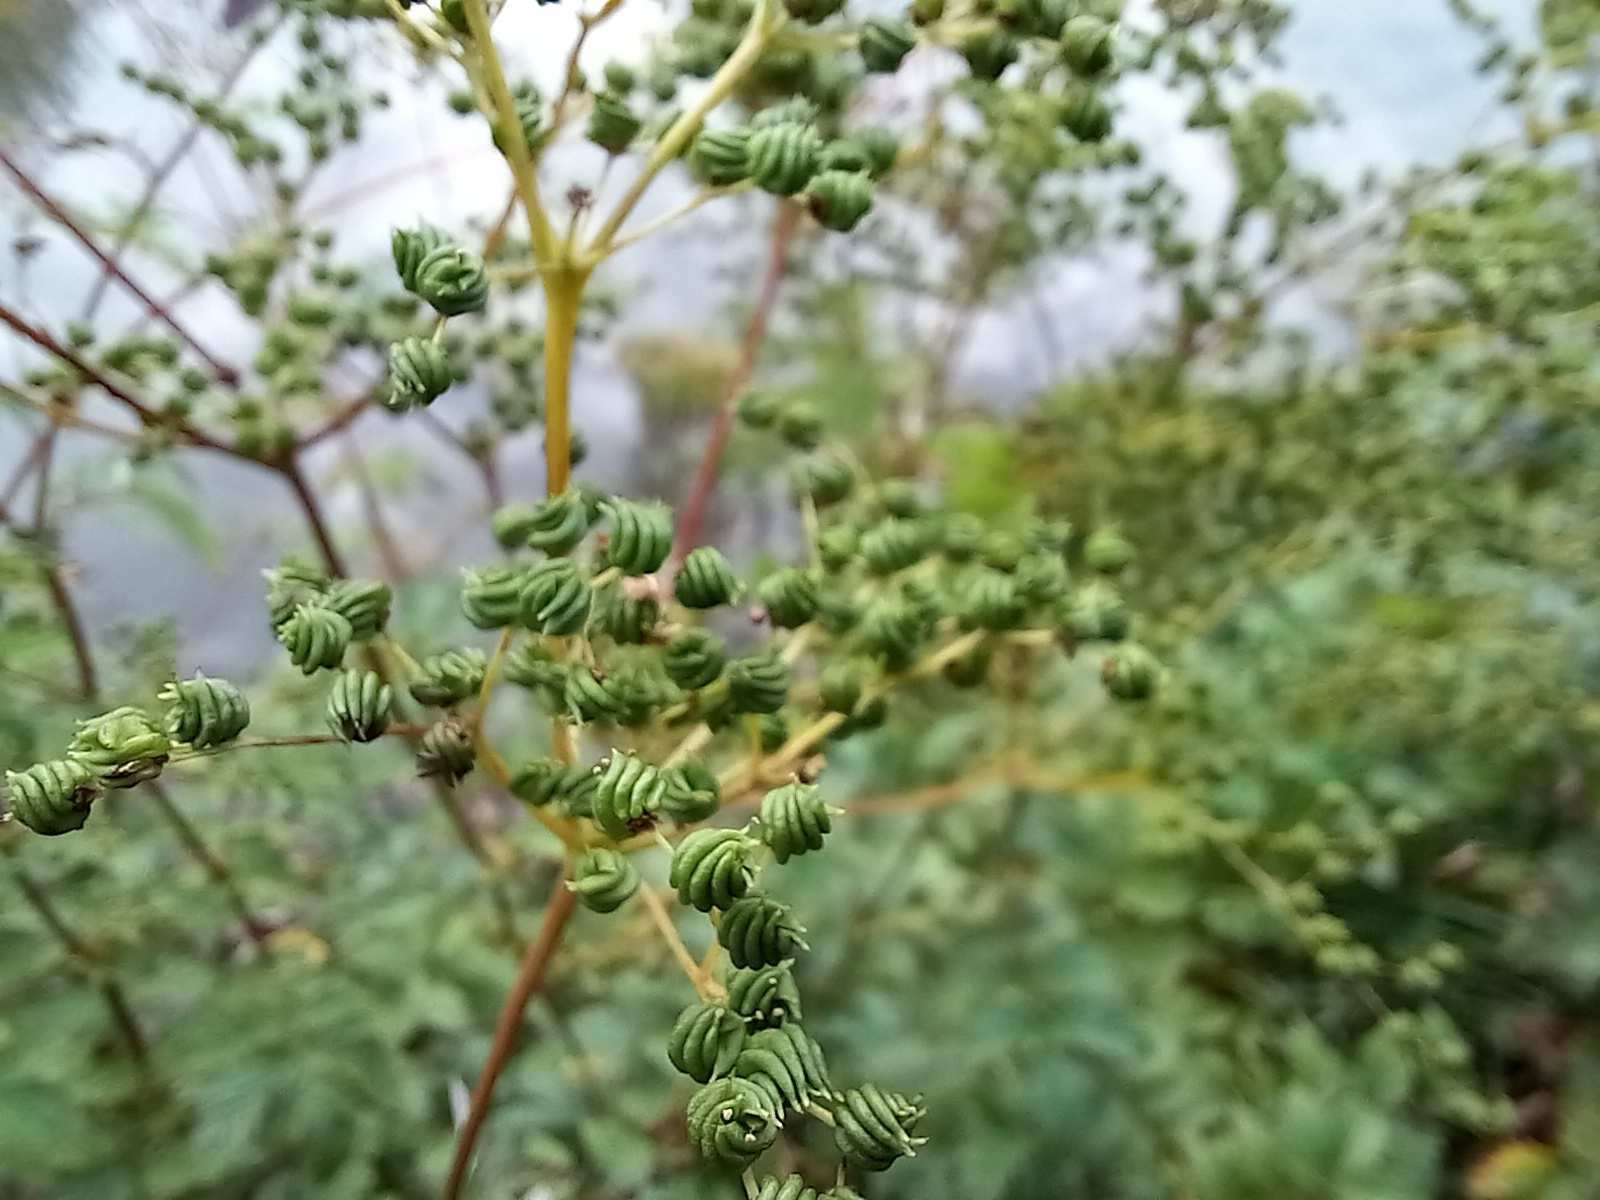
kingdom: Plantae
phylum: Tracheophyta
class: Magnoliopsida
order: Rosales
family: Rosaceae
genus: Filipendula
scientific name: Filipendula ulmaria
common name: Meadowsweet
